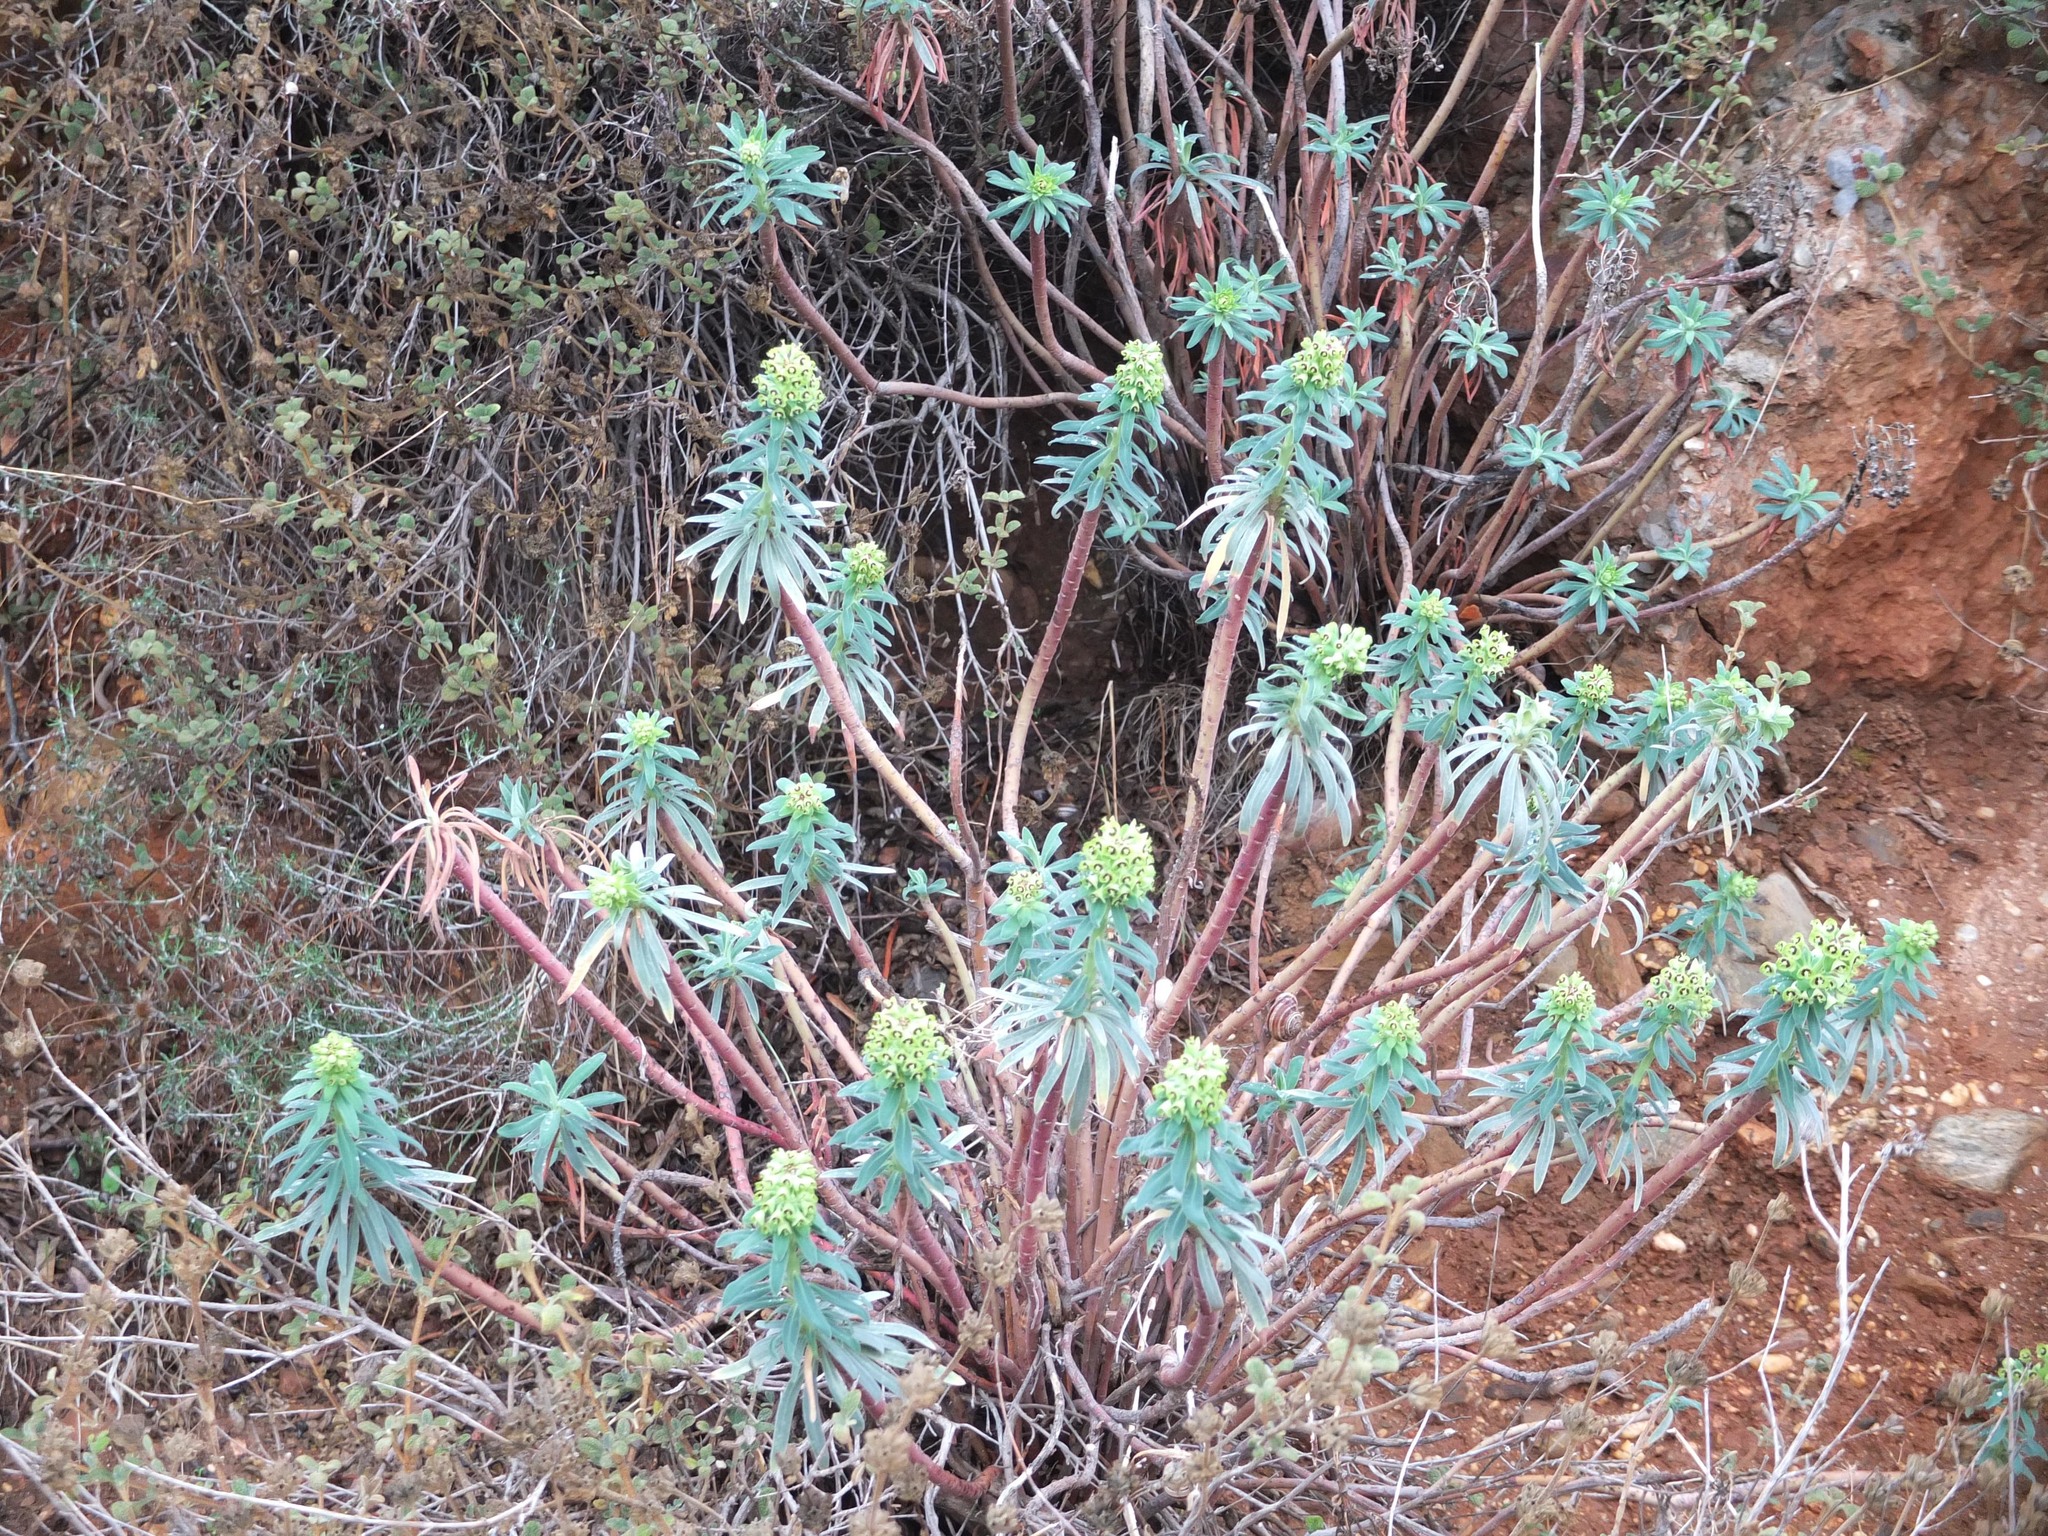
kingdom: Plantae
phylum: Tracheophyta
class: Magnoliopsida
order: Malpighiales
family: Euphorbiaceae
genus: Euphorbia
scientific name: Euphorbia characias
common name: Mediterranean spurge
